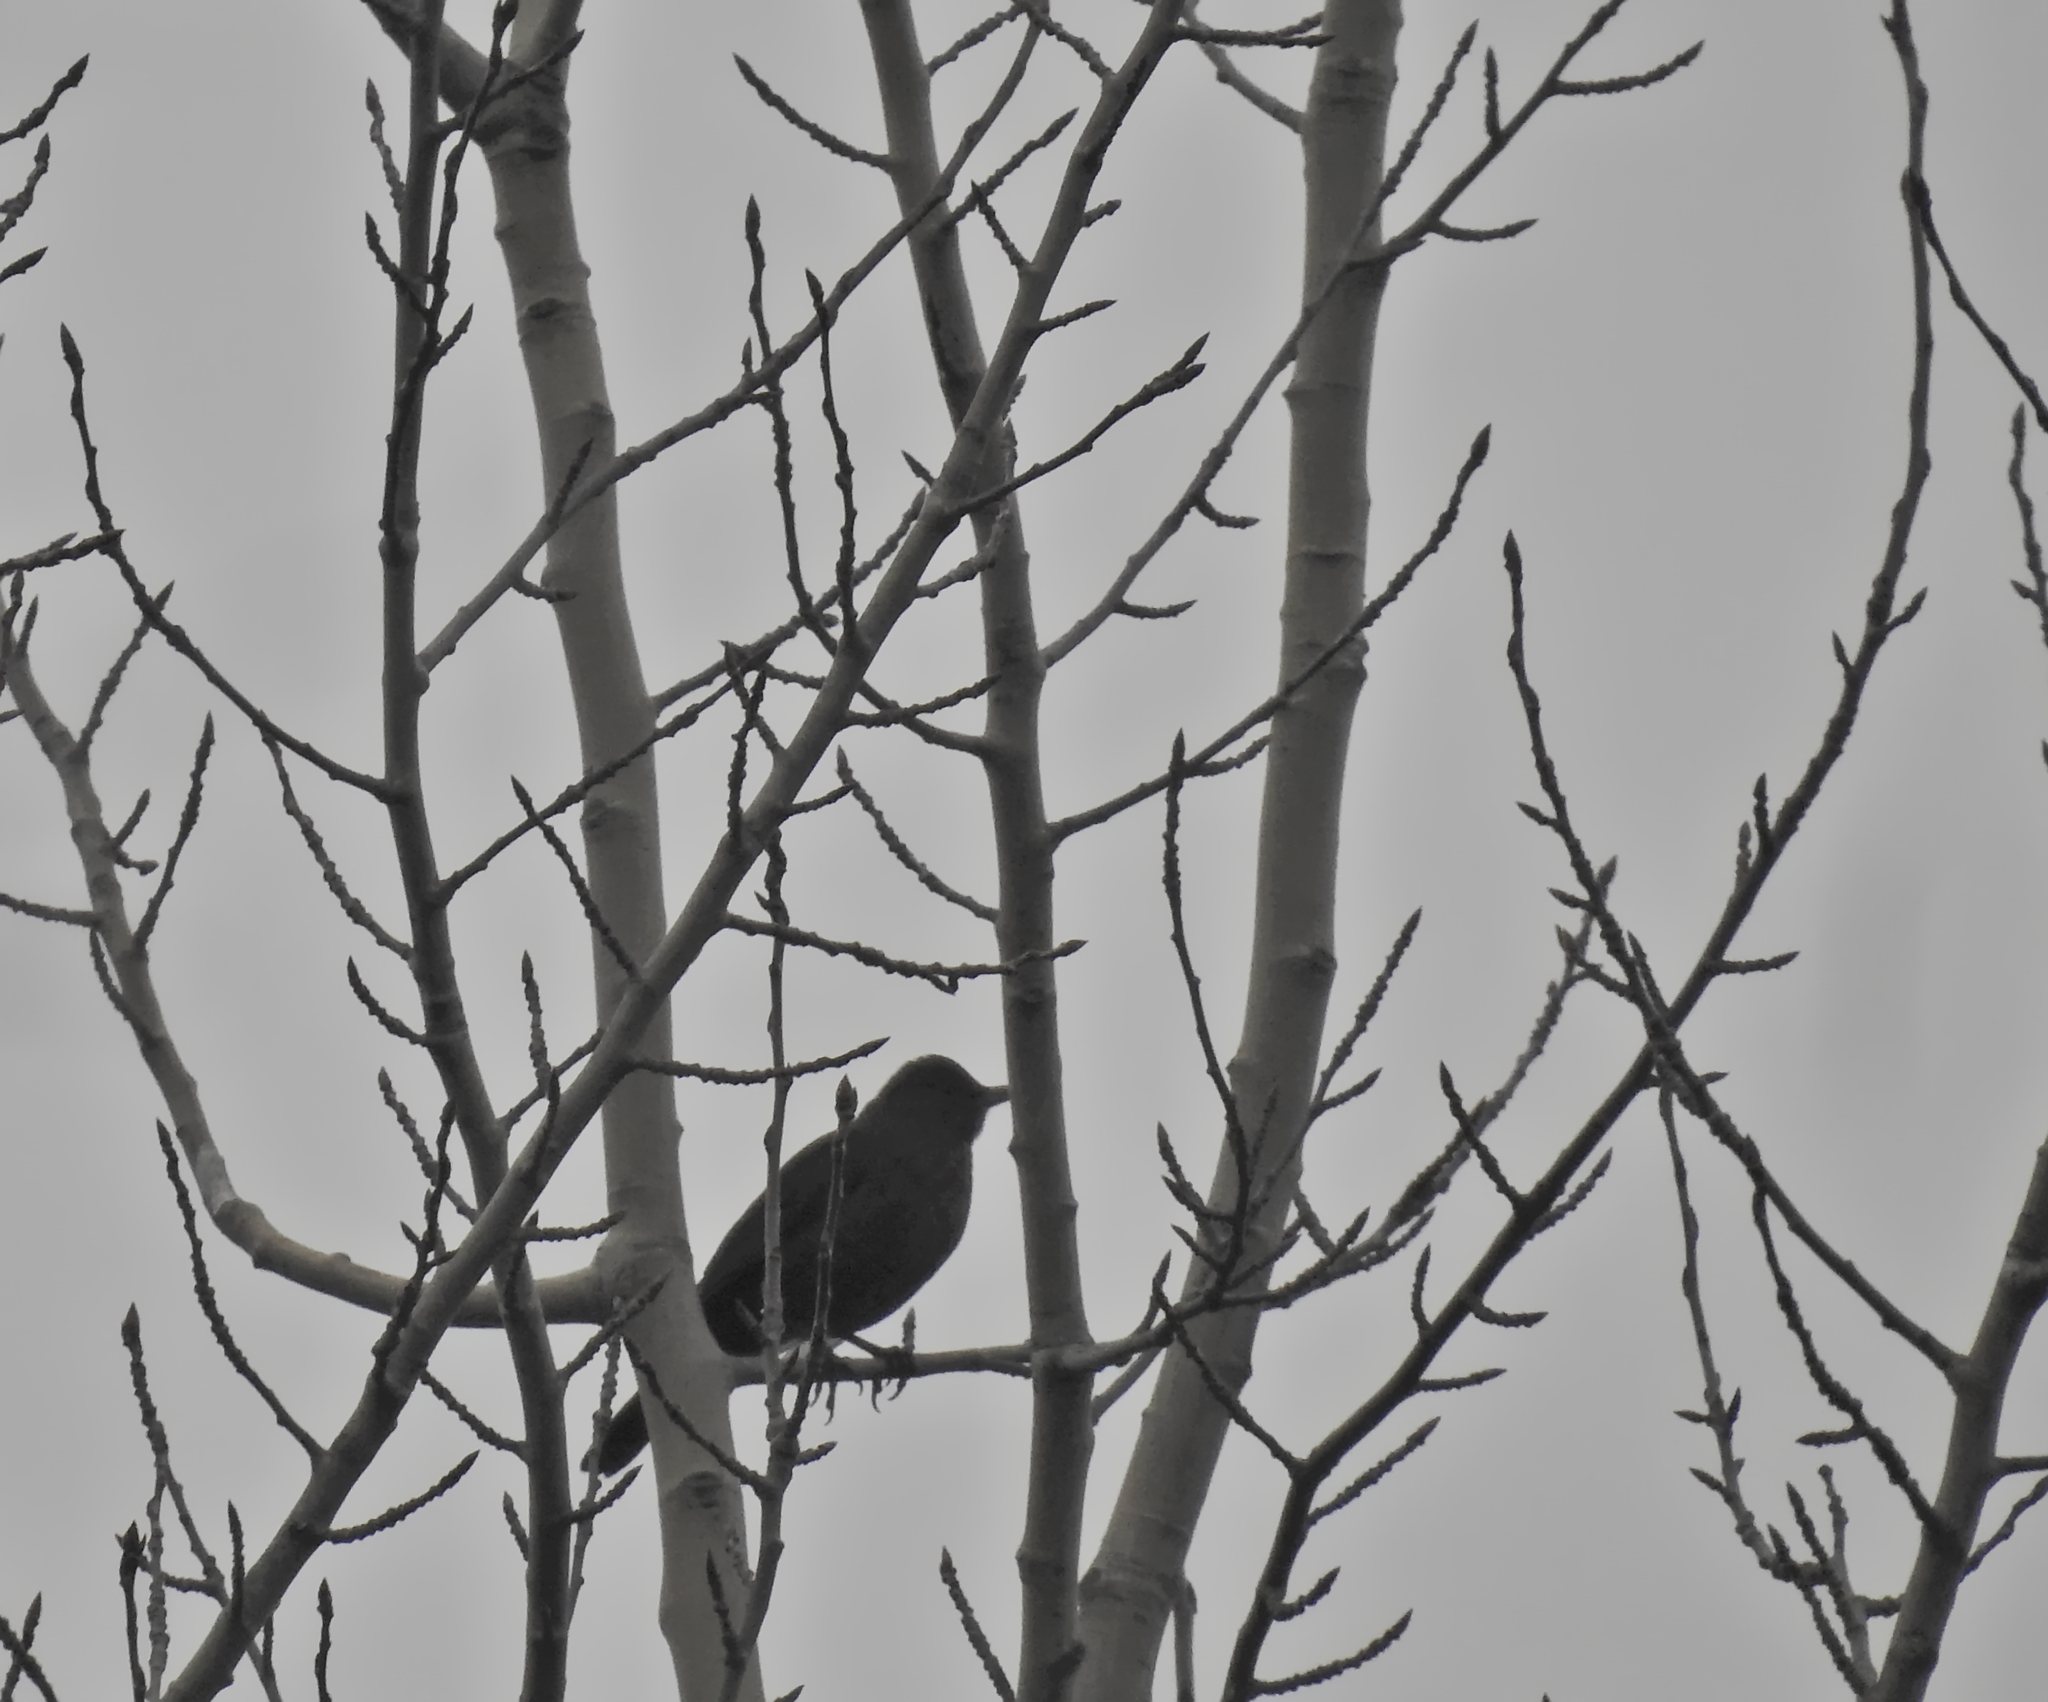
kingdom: Animalia
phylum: Chordata
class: Aves
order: Passeriformes
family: Turdidae
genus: Turdus
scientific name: Turdus merula
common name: Common blackbird
